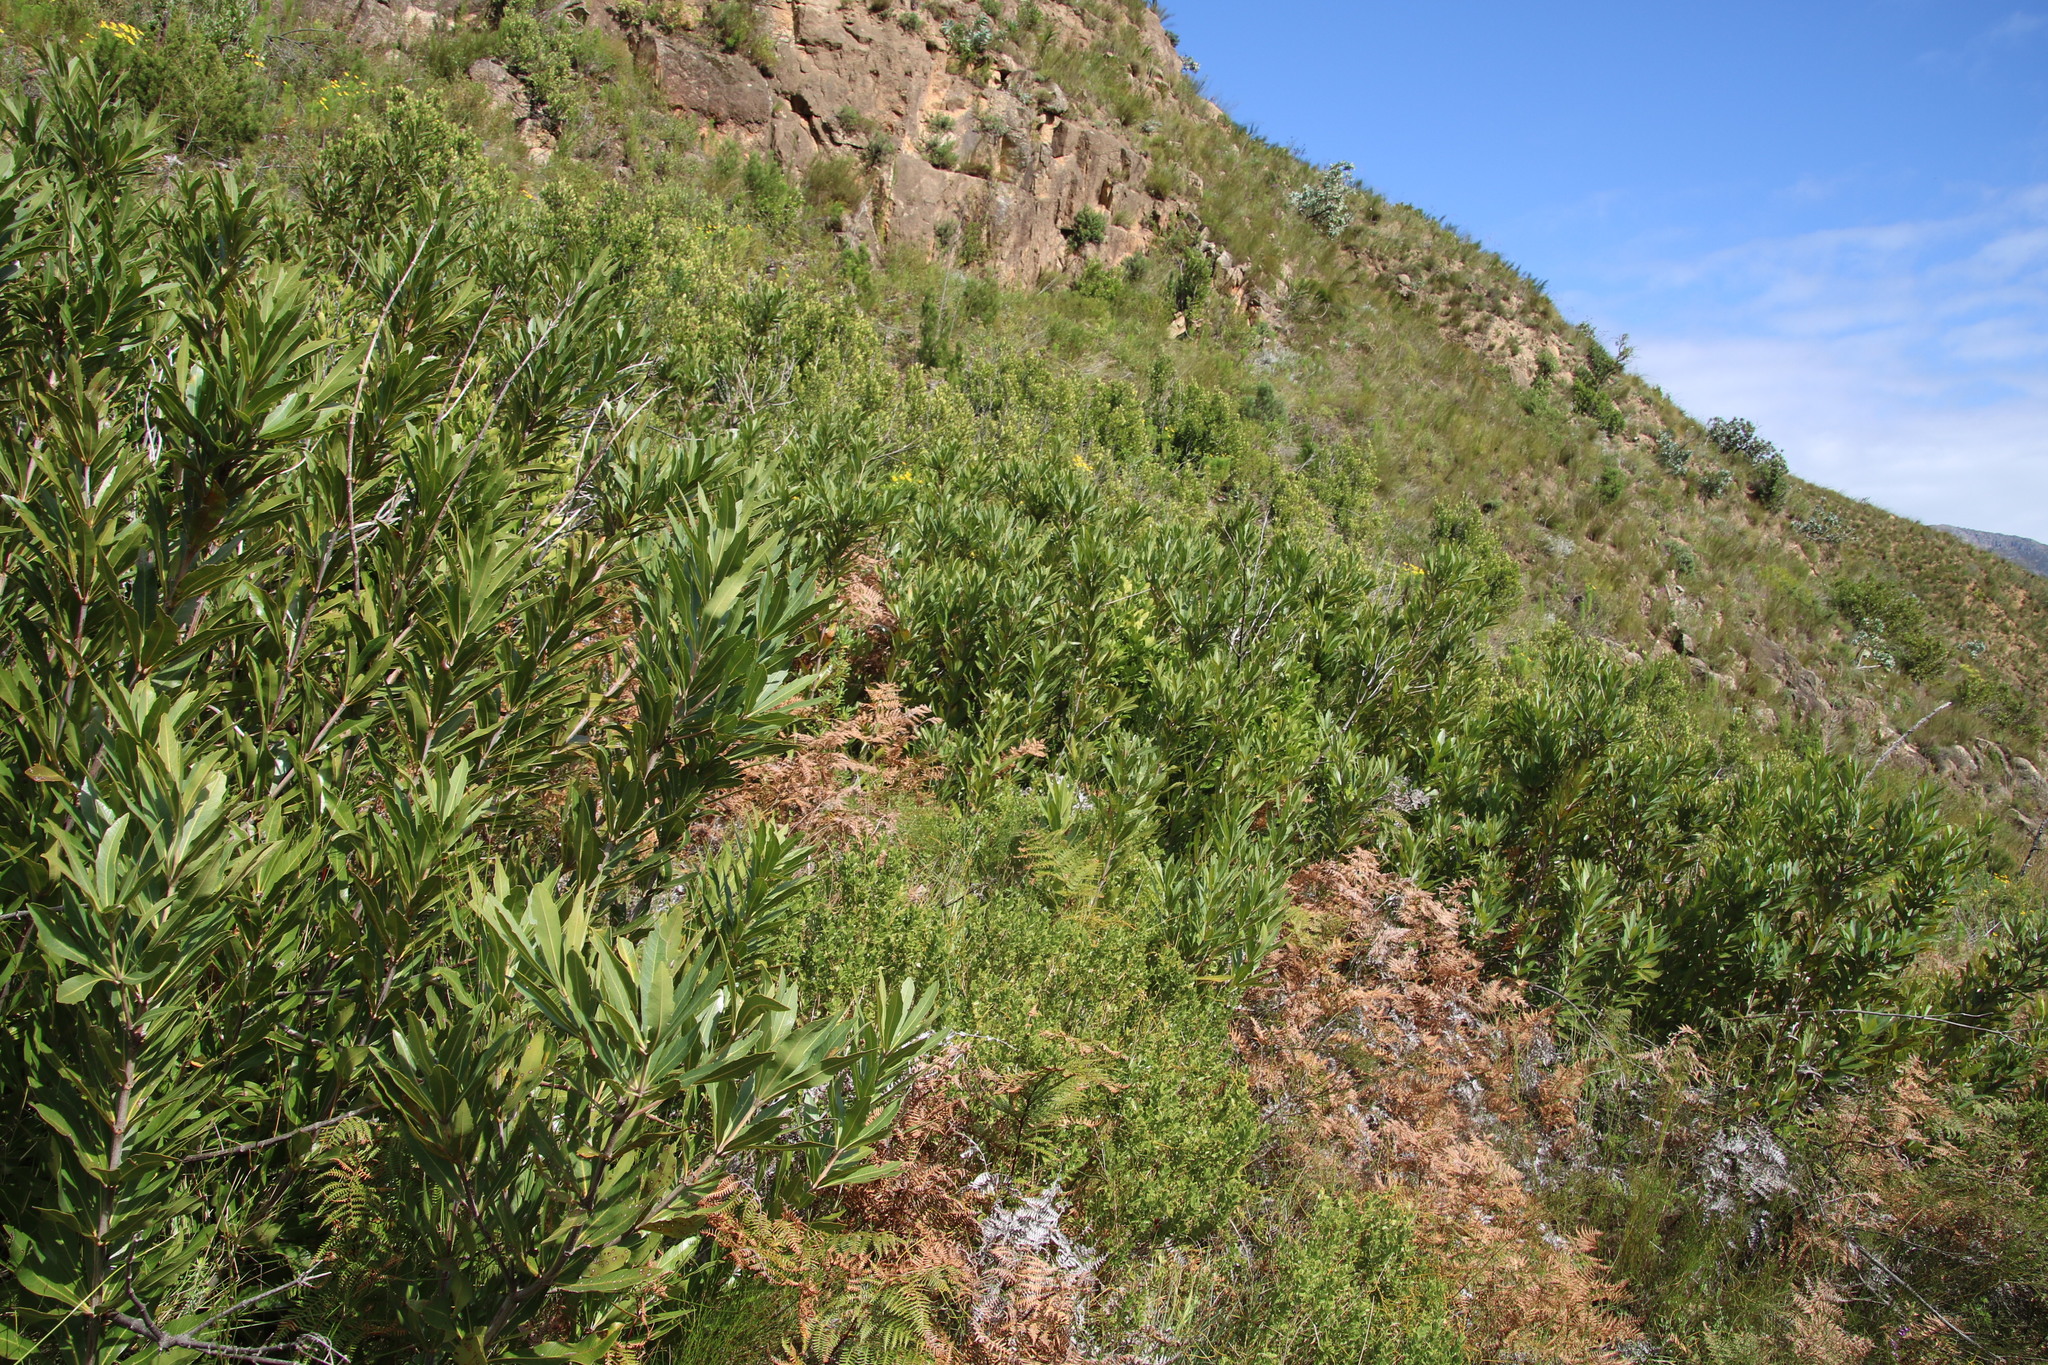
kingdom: Plantae
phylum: Tracheophyta
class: Magnoliopsida
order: Proteales
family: Proteaceae
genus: Brabejum
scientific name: Brabejum stellatifolium
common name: Wild almond
